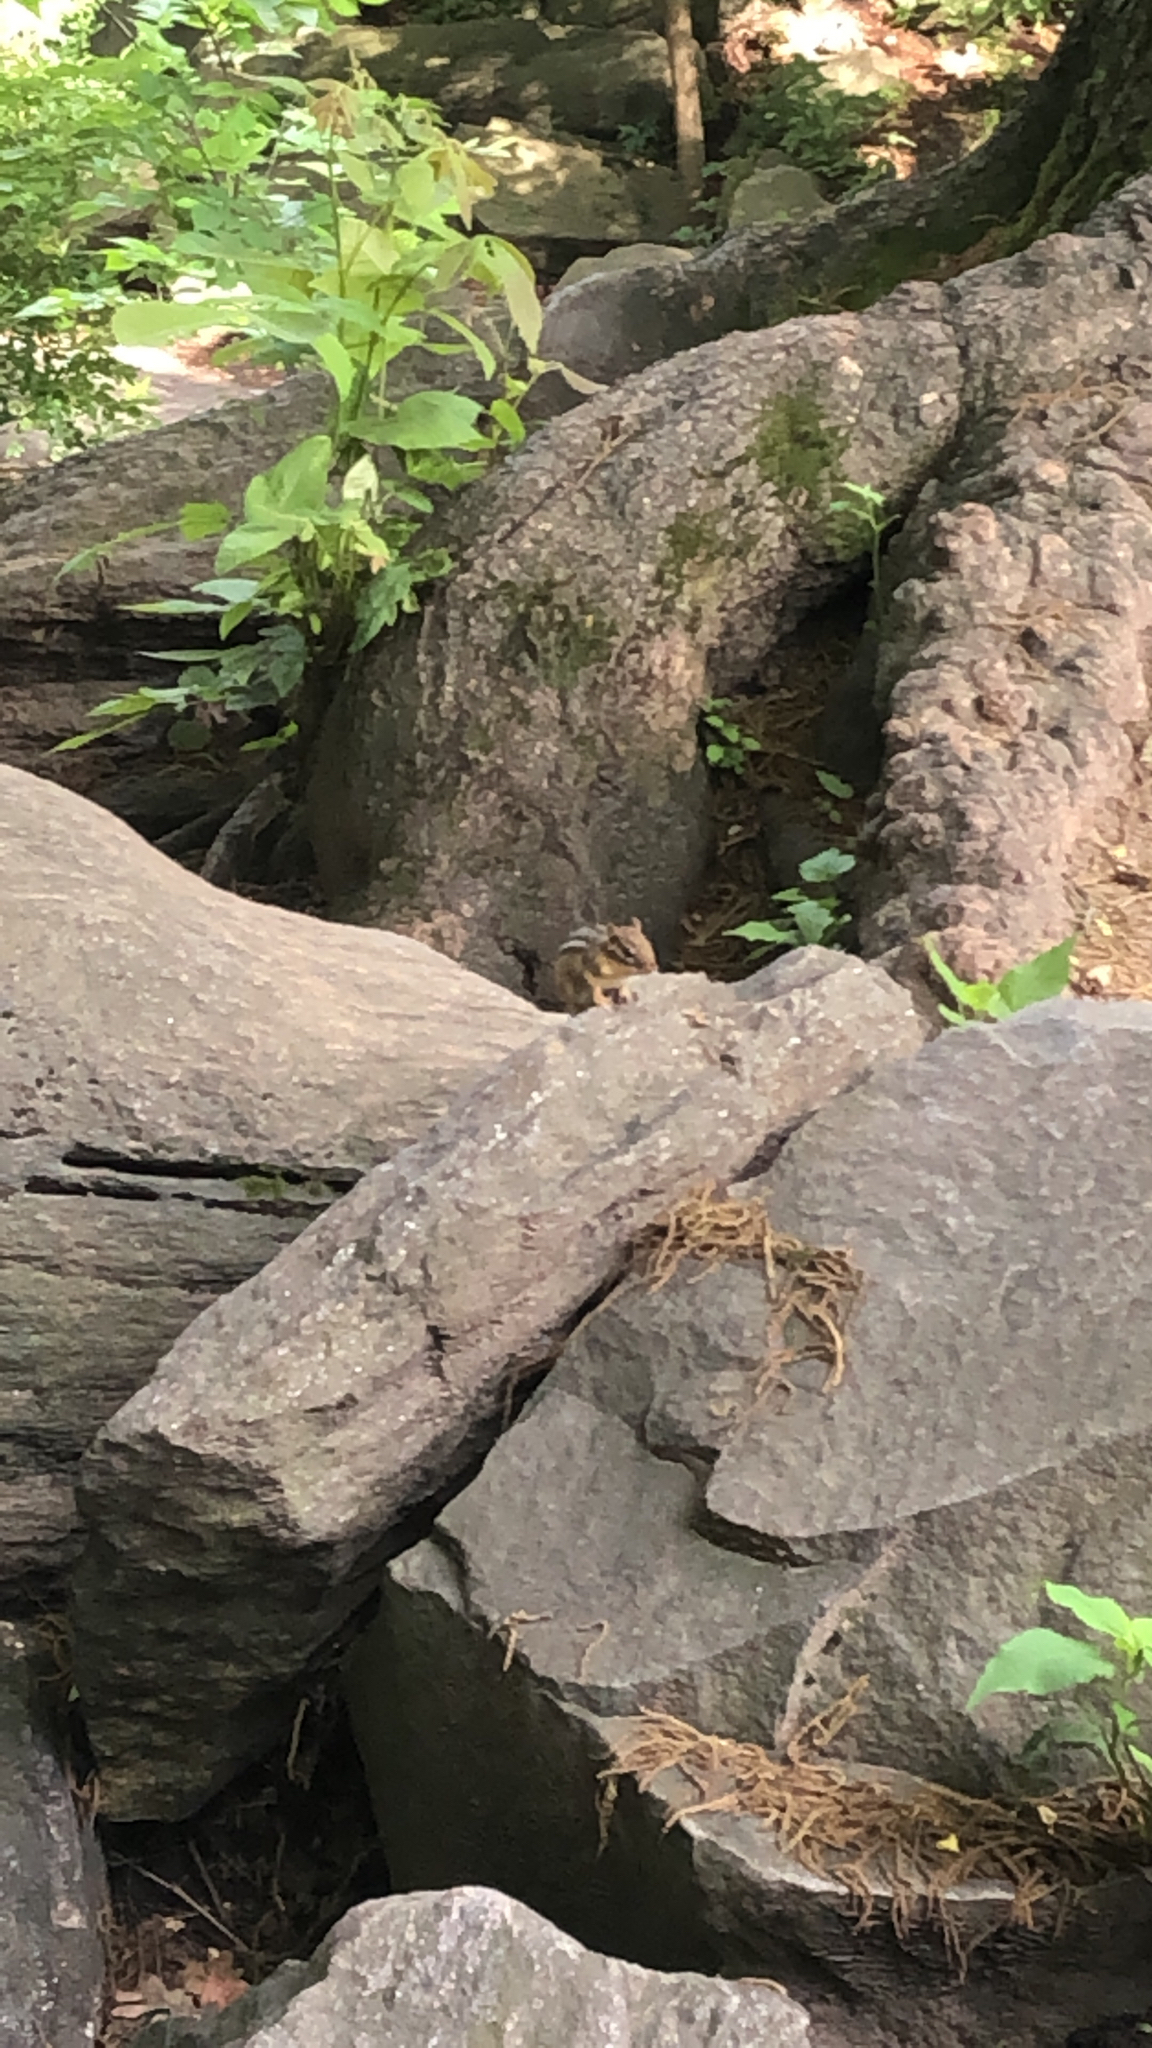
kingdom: Animalia
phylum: Chordata
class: Mammalia
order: Rodentia
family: Sciuridae
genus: Tamias
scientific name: Tamias striatus
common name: Eastern chipmunk
